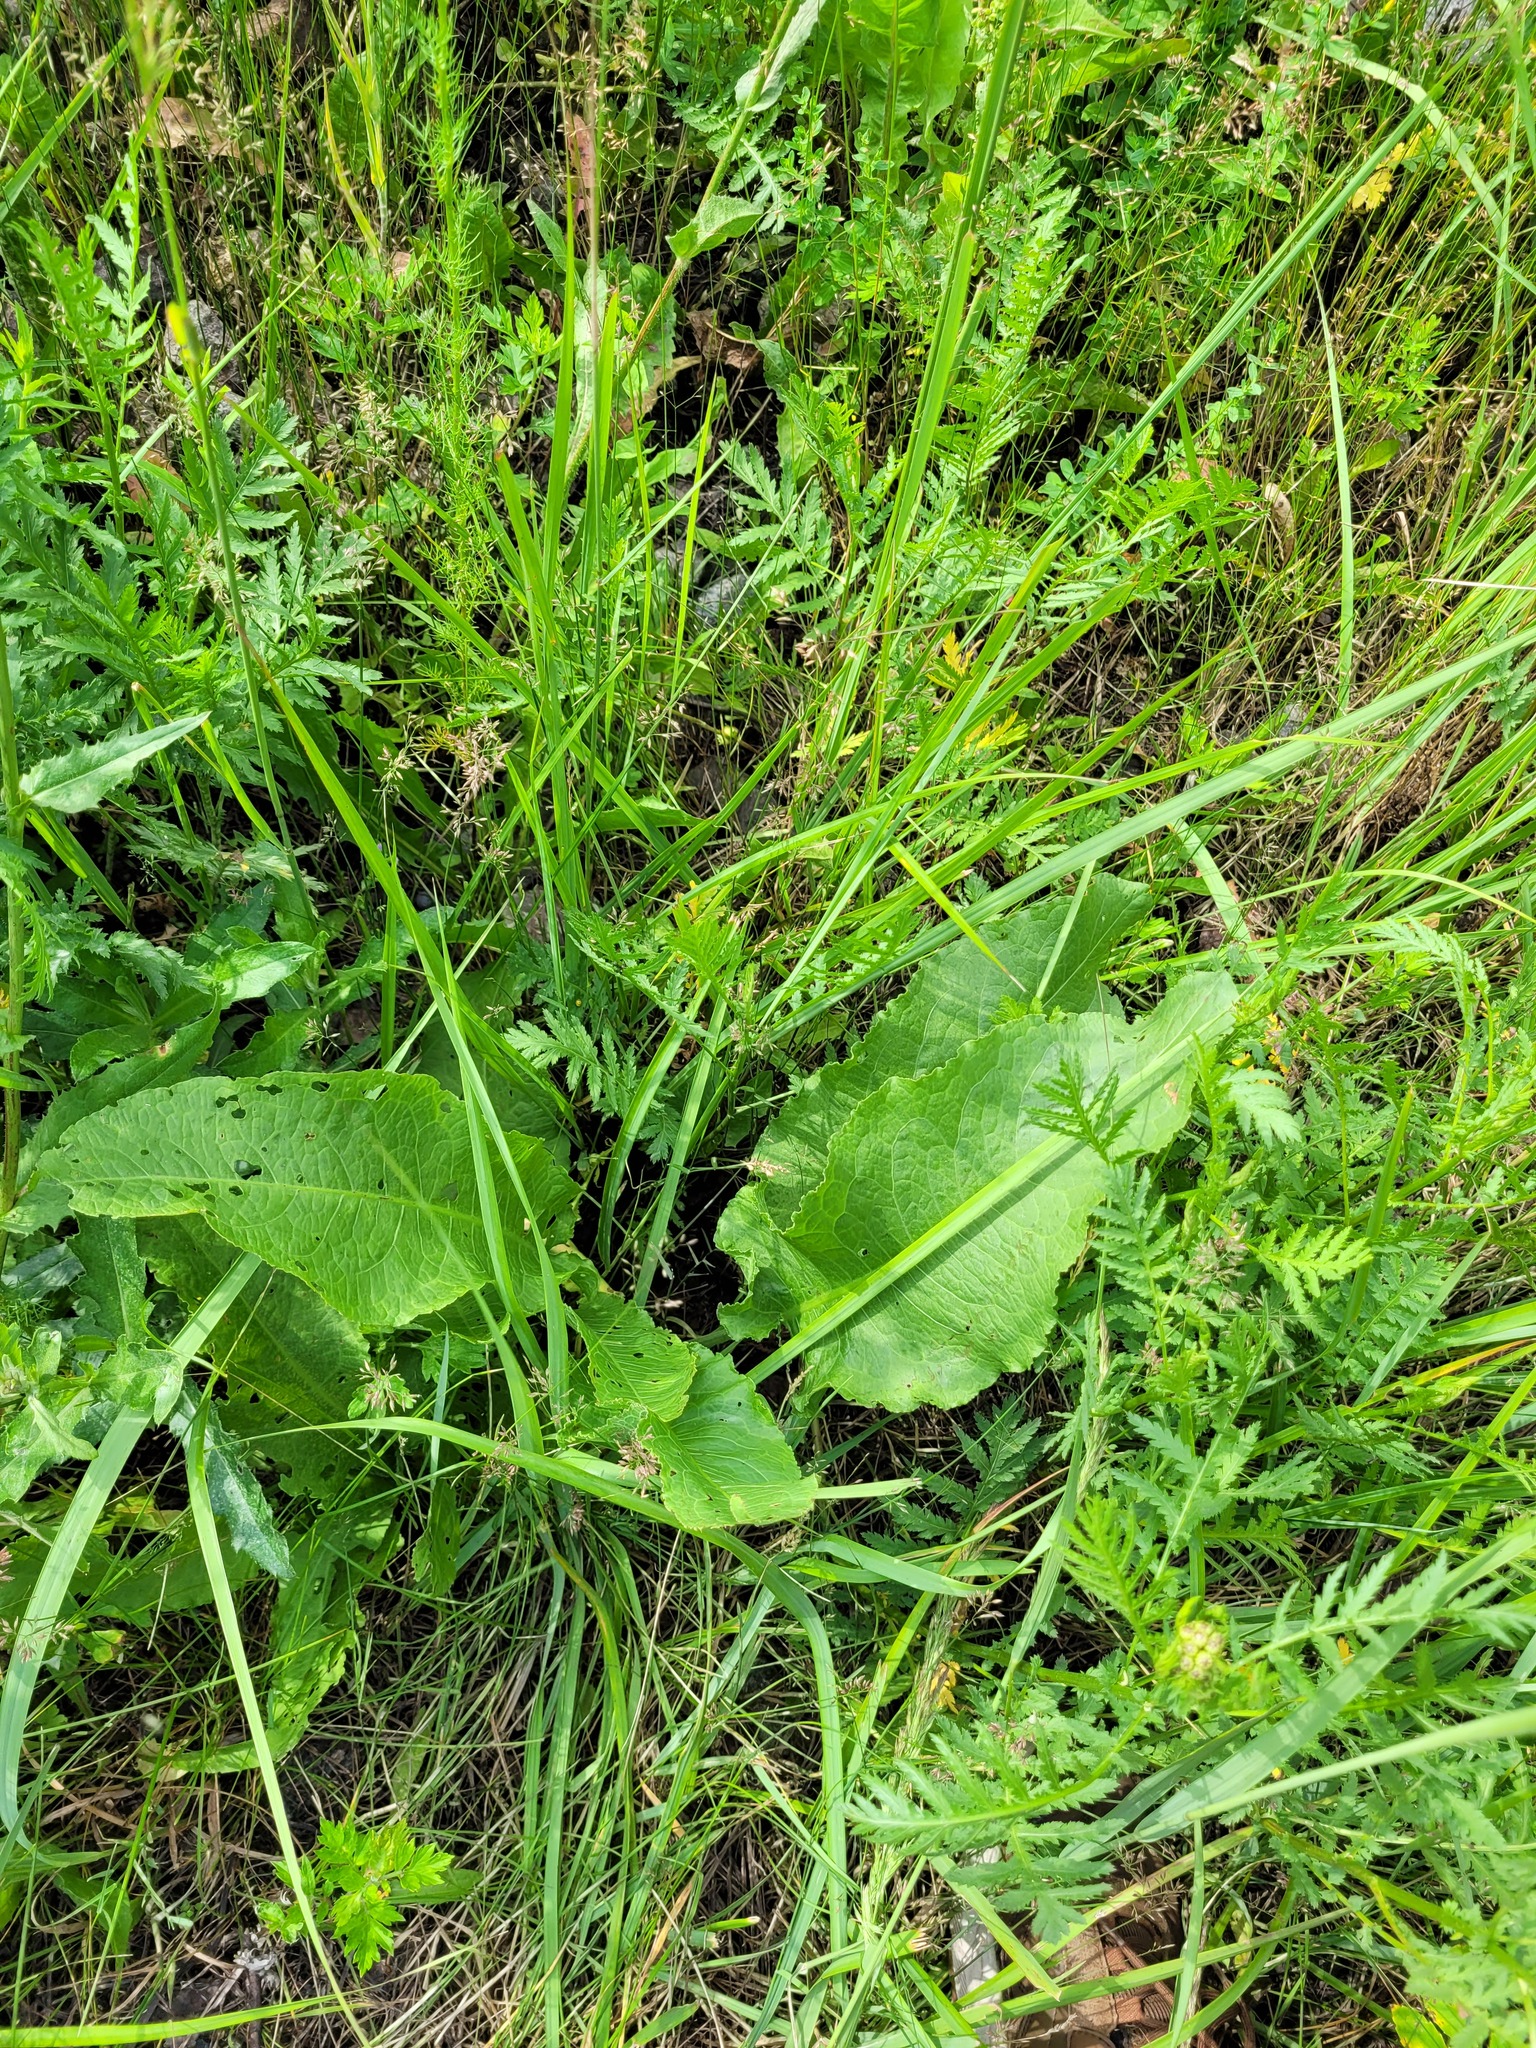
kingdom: Plantae
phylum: Tracheophyta
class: Magnoliopsida
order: Caryophyllales
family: Polygonaceae
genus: Rumex
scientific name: Rumex confertus
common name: Russian dock
